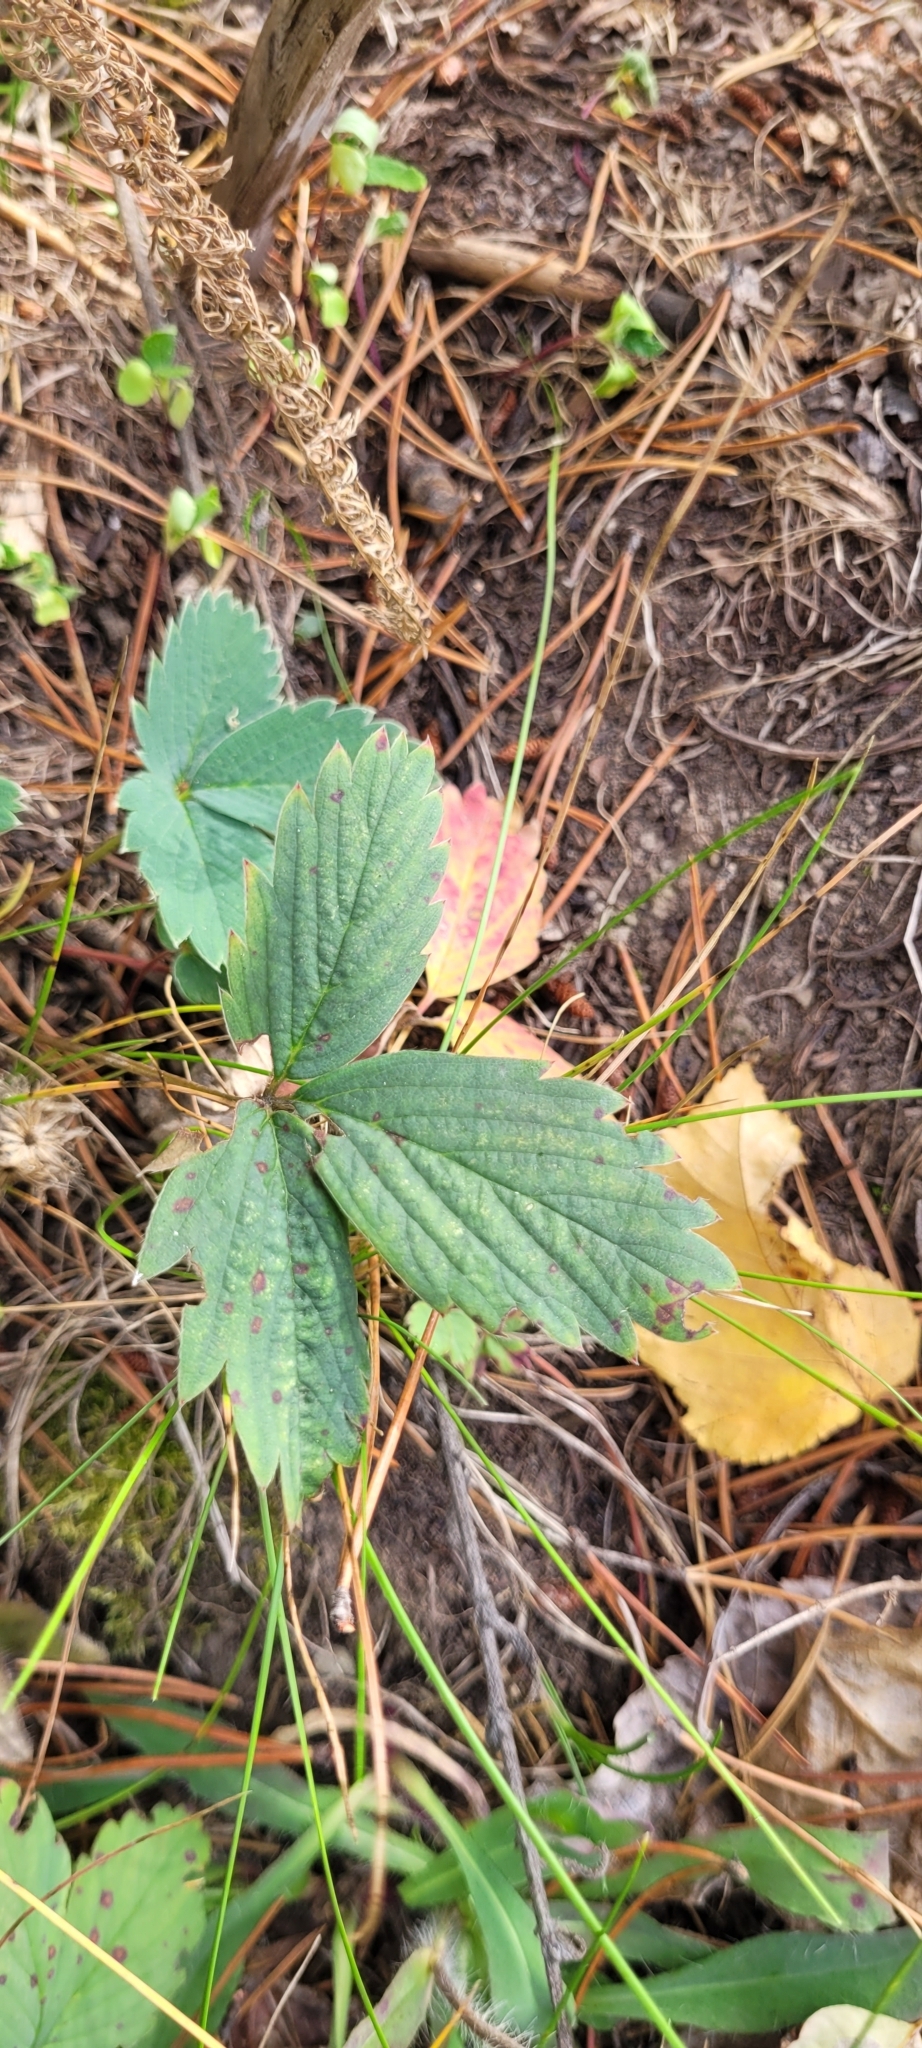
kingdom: Plantae
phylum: Tracheophyta
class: Magnoliopsida
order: Rosales
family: Rosaceae
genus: Fragaria
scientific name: Fragaria virginiana
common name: Thickleaved wild strawberry
